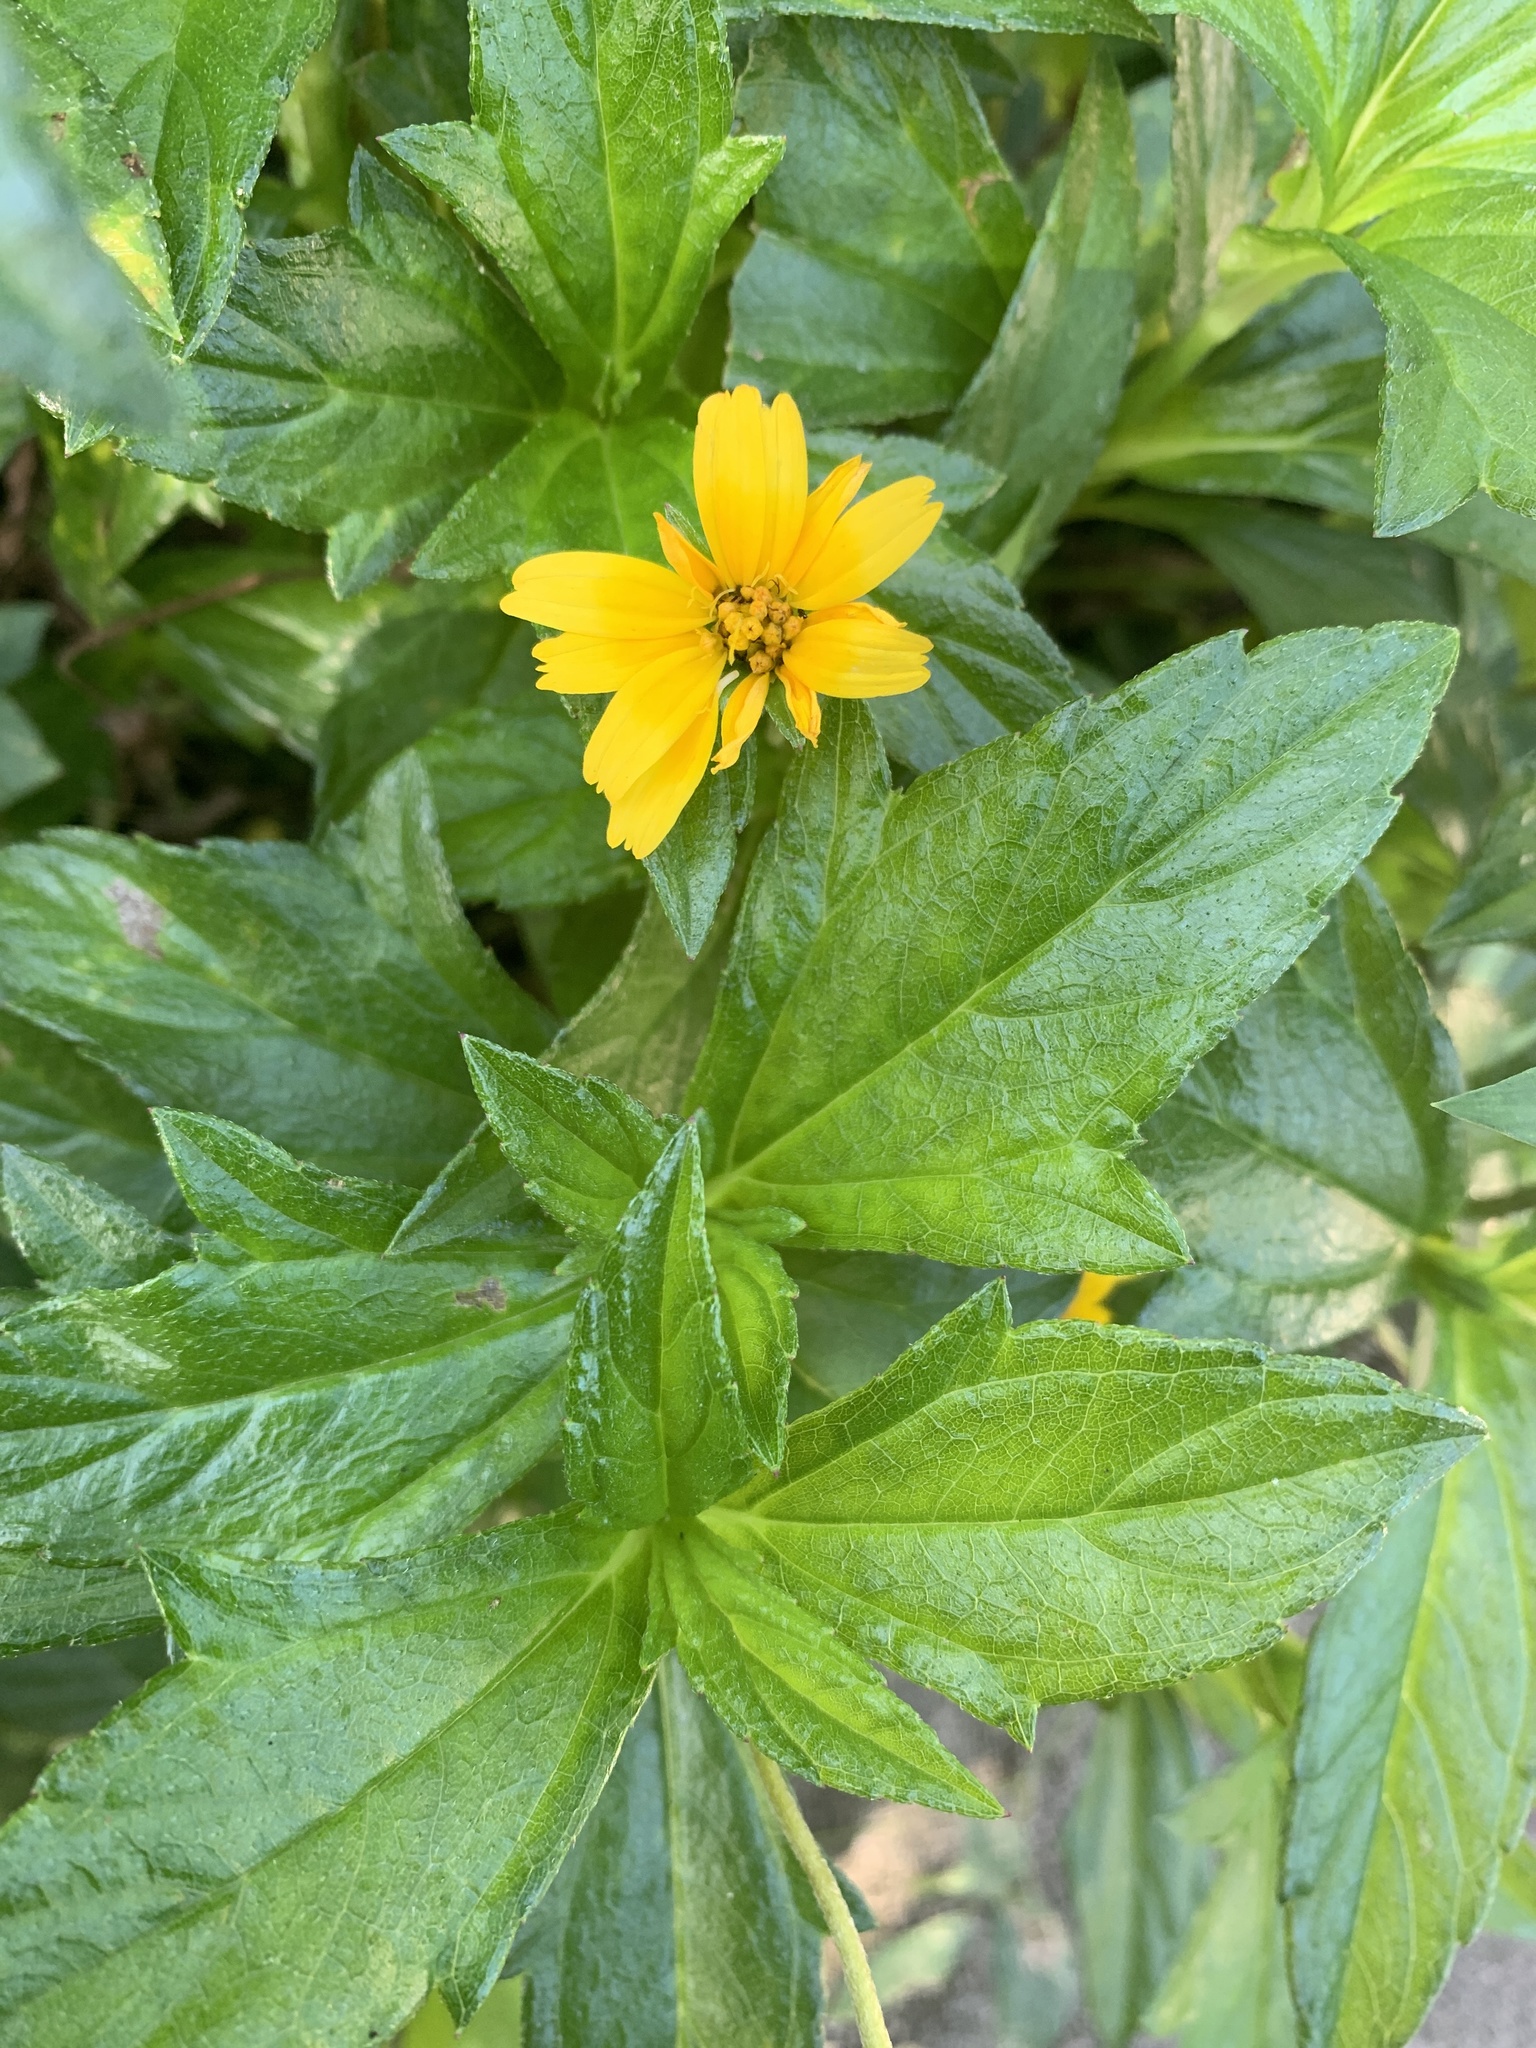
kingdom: Plantae
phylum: Tracheophyta
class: Magnoliopsida
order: Asterales
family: Asteraceae
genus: Sphagneticola
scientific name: Sphagneticola trilobata
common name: Bay biscayne creeping-oxeye
